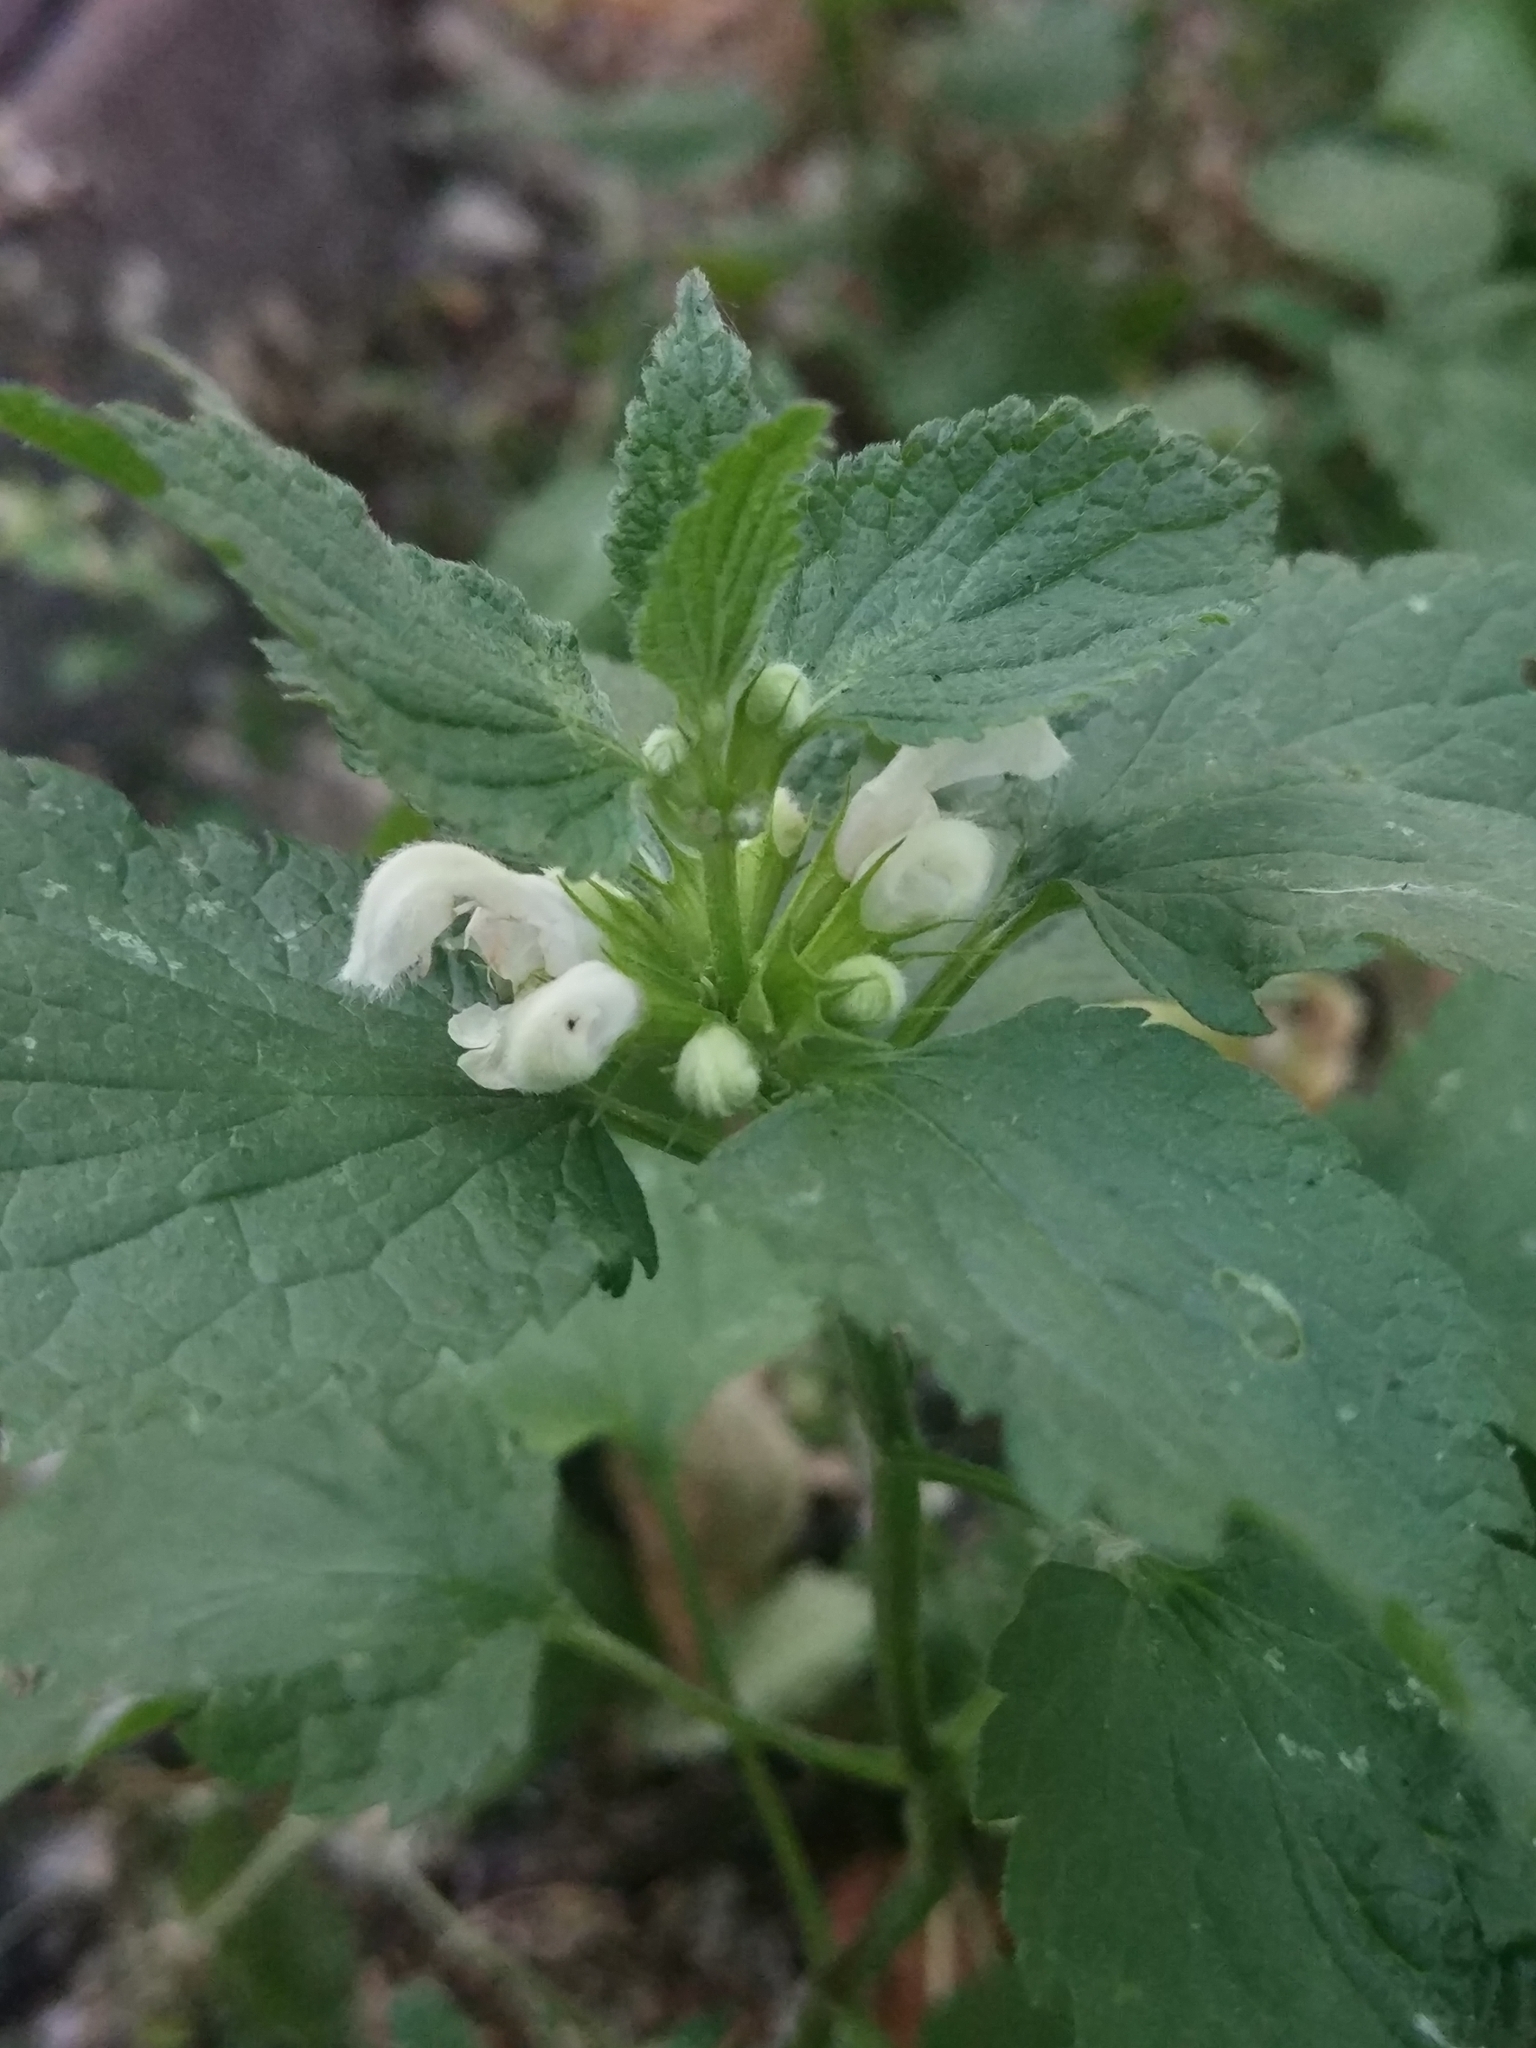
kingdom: Plantae
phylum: Tracheophyta
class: Magnoliopsida
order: Lamiales
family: Lamiaceae
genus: Lamium
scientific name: Lamium album
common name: White dead-nettle
